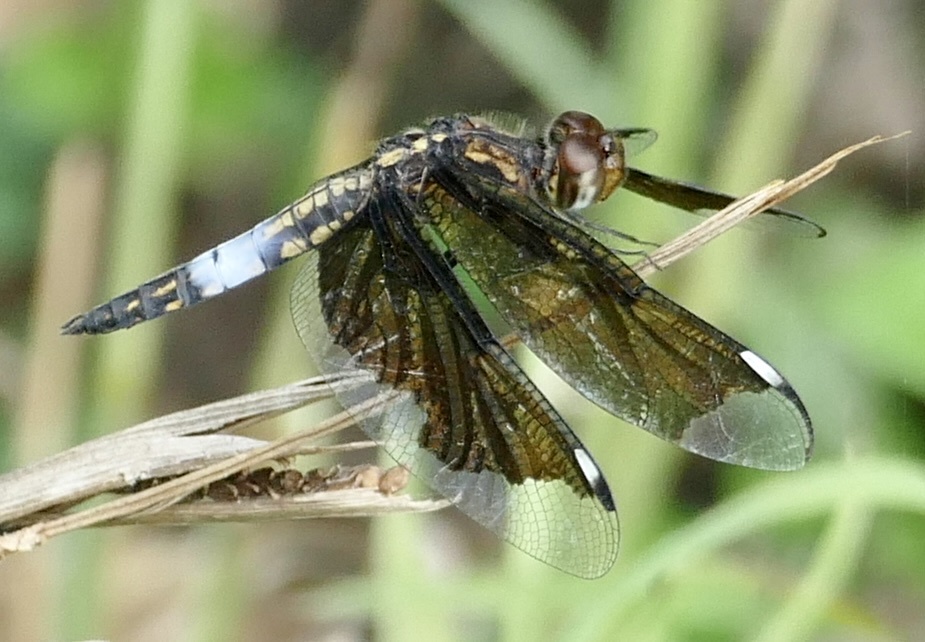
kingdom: Animalia
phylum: Arthropoda
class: Insecta
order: Odonata
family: Libellulidae
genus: Palpopleura
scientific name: Palpopleura lucia
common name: Lucia widow
